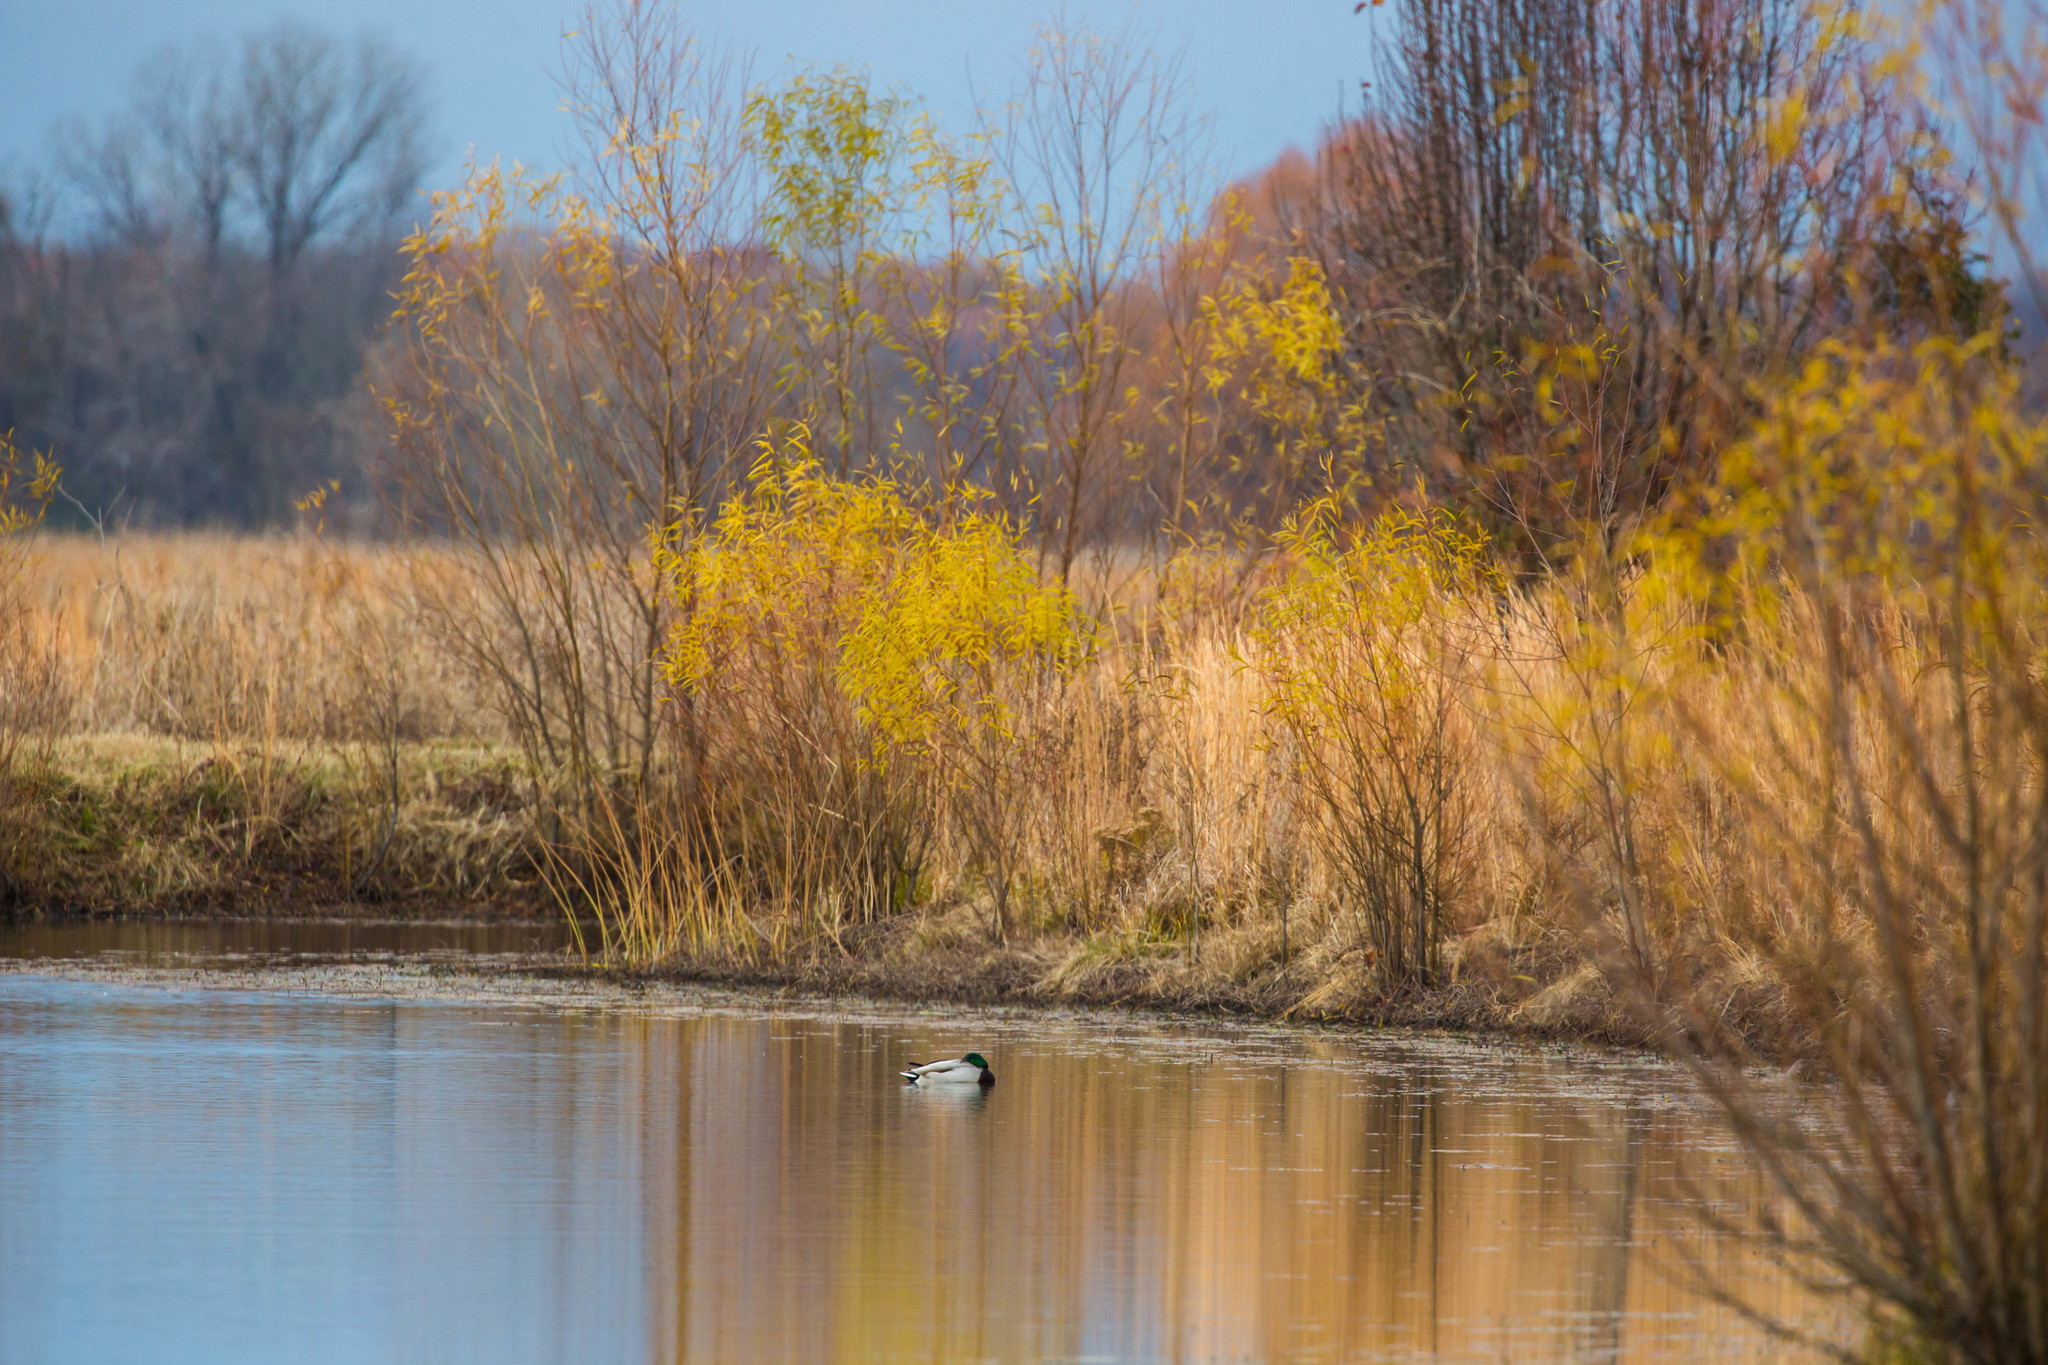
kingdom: Animalia
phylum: Chordata
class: Aves
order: Anseriformes
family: Anatidae
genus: Anas
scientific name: Anas platyrhynchos
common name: Mallard
